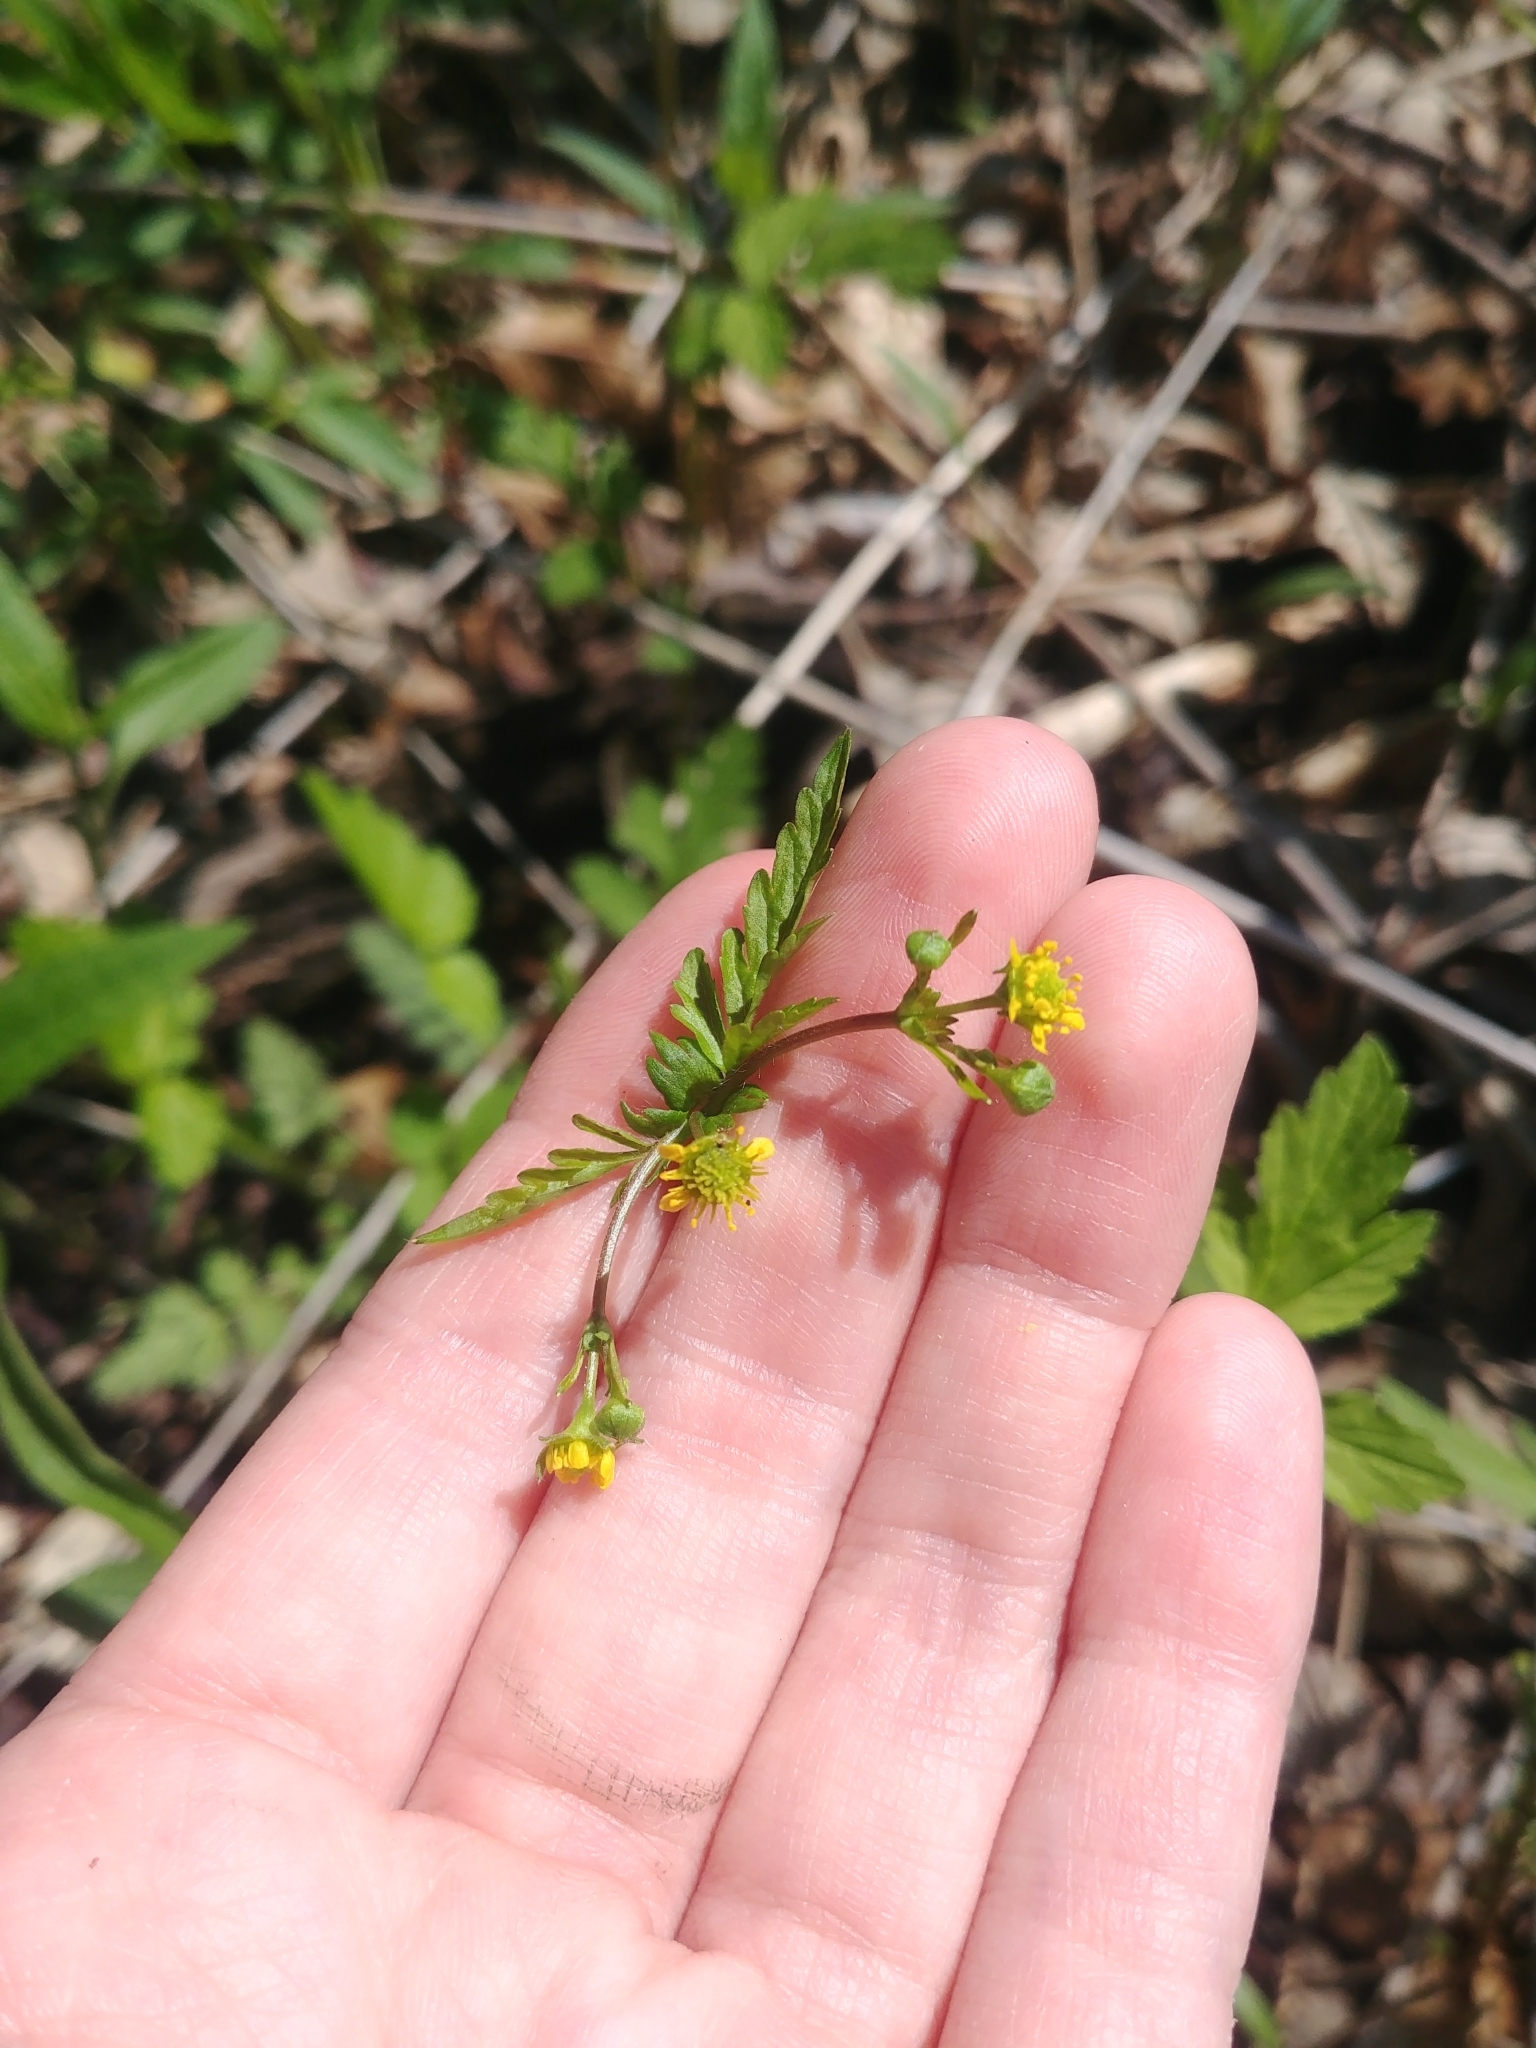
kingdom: Plantae
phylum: Tracheophyta
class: Magnoliopsida
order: Rosales
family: Rosaceae
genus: Geum
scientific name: Geum vernum
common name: Spring avens
